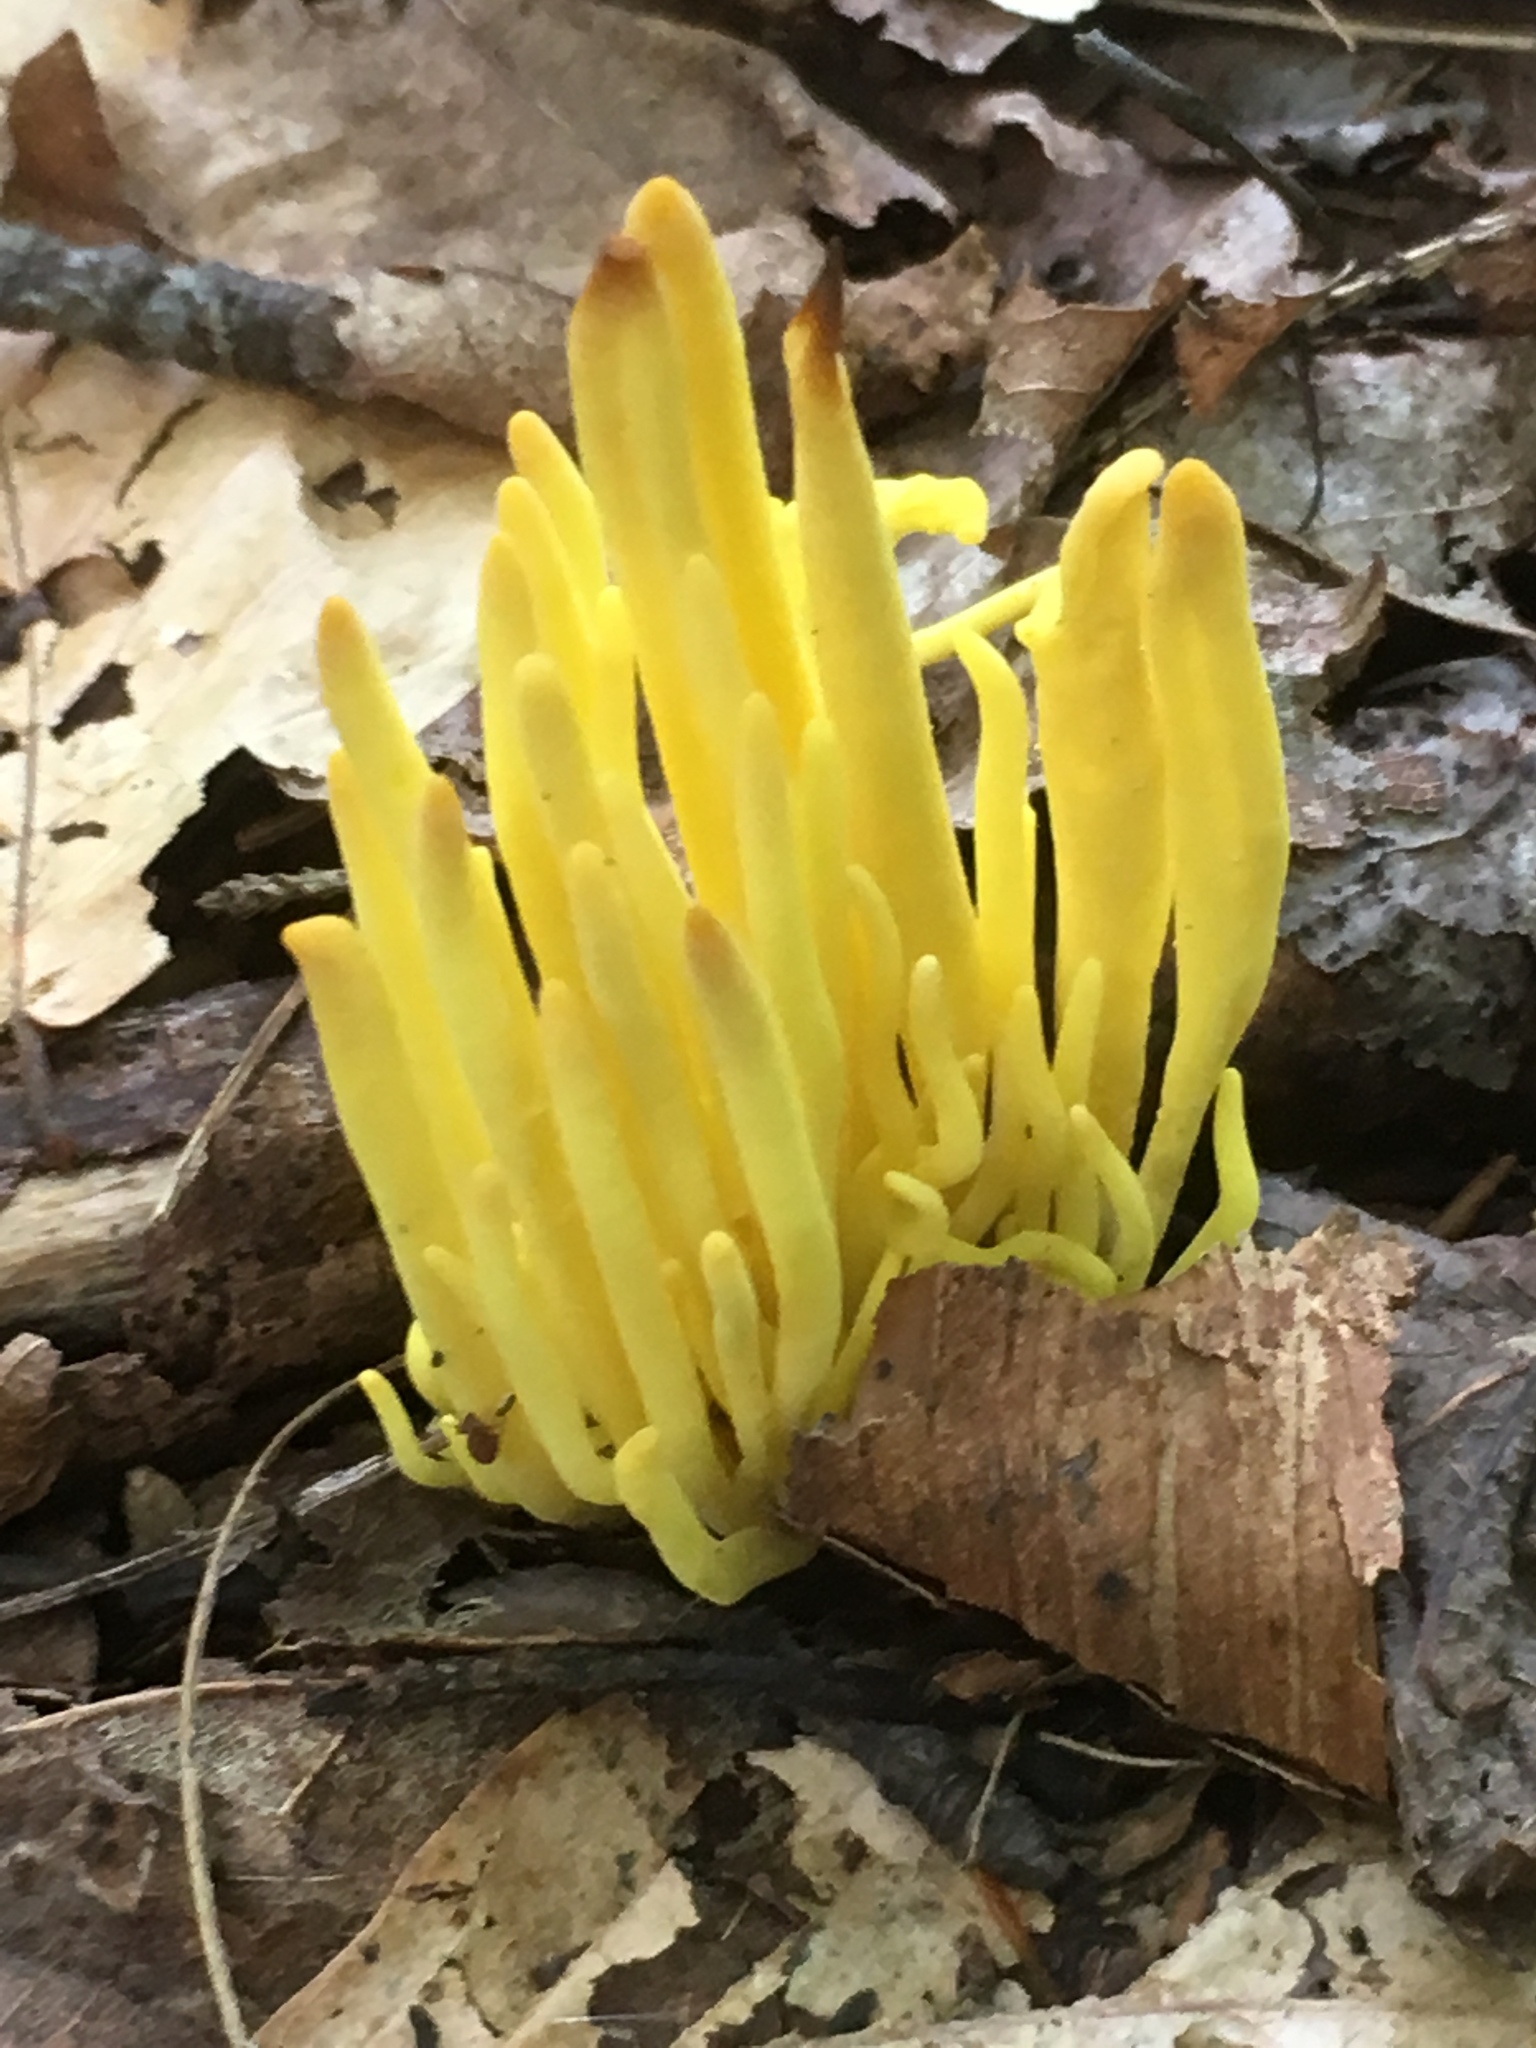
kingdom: Fungi
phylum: Basidiomycota
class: Agaricomycetes
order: Agaricales
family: Clavariaceae
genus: Clavulinopsis
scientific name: Clavulinopsis fusiformis
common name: Golden spindles
